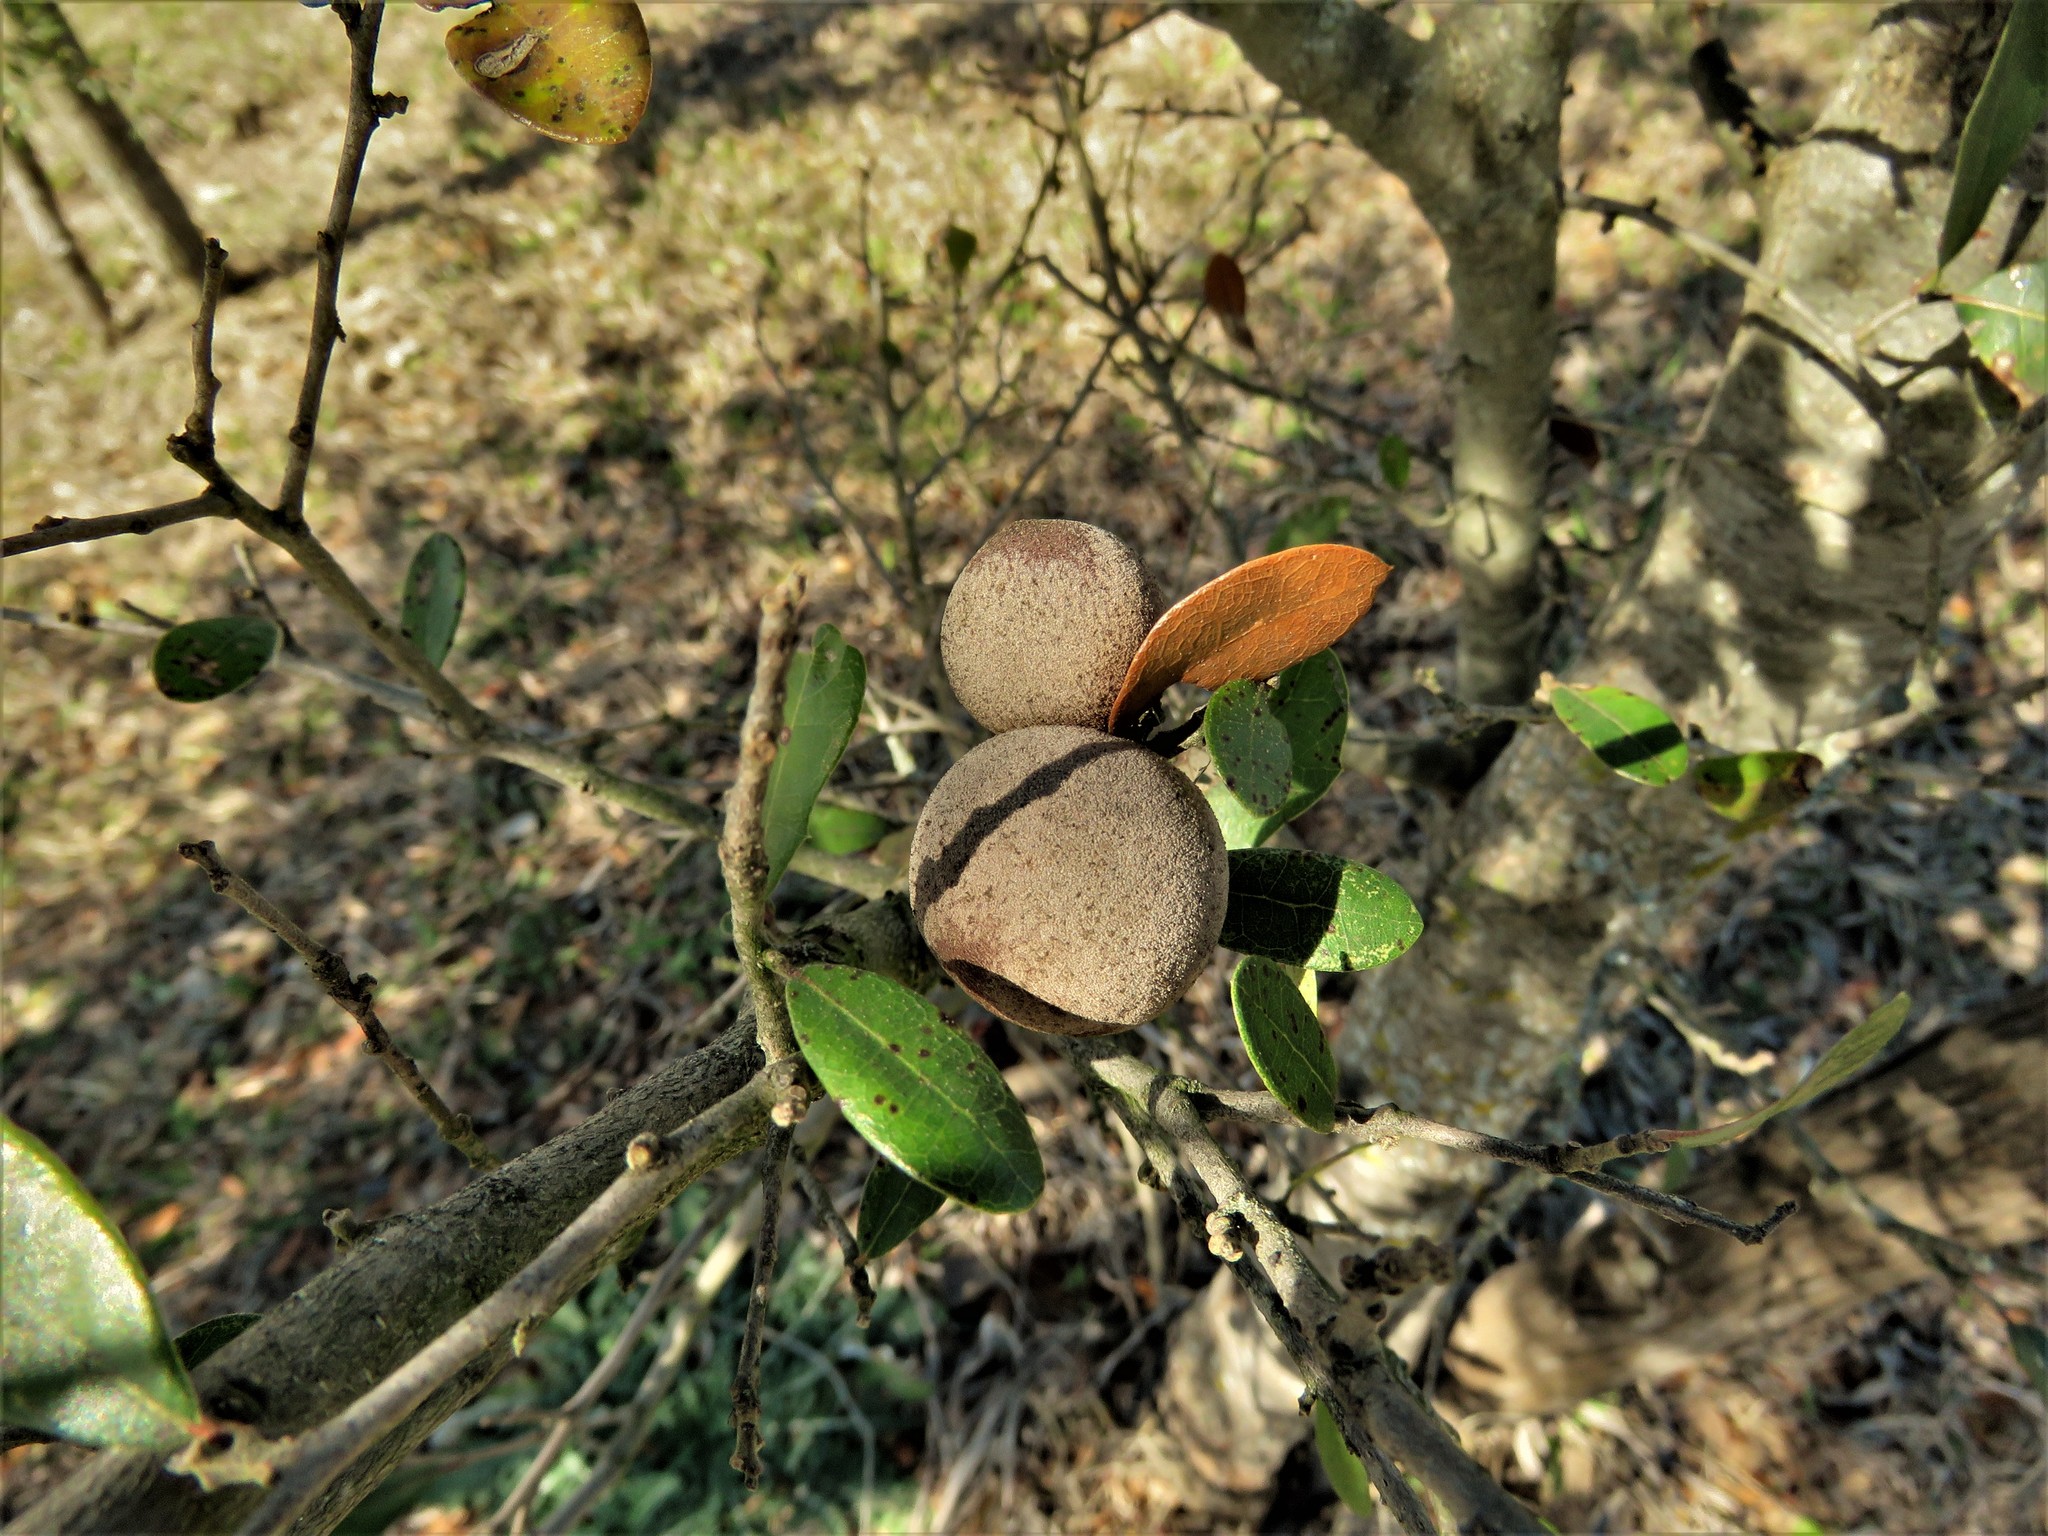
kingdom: Animalia
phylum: Arthropoda
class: Insecta
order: Hymenoptera
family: Cynipidae
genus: Disholcaspis
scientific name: Disholcaspis
